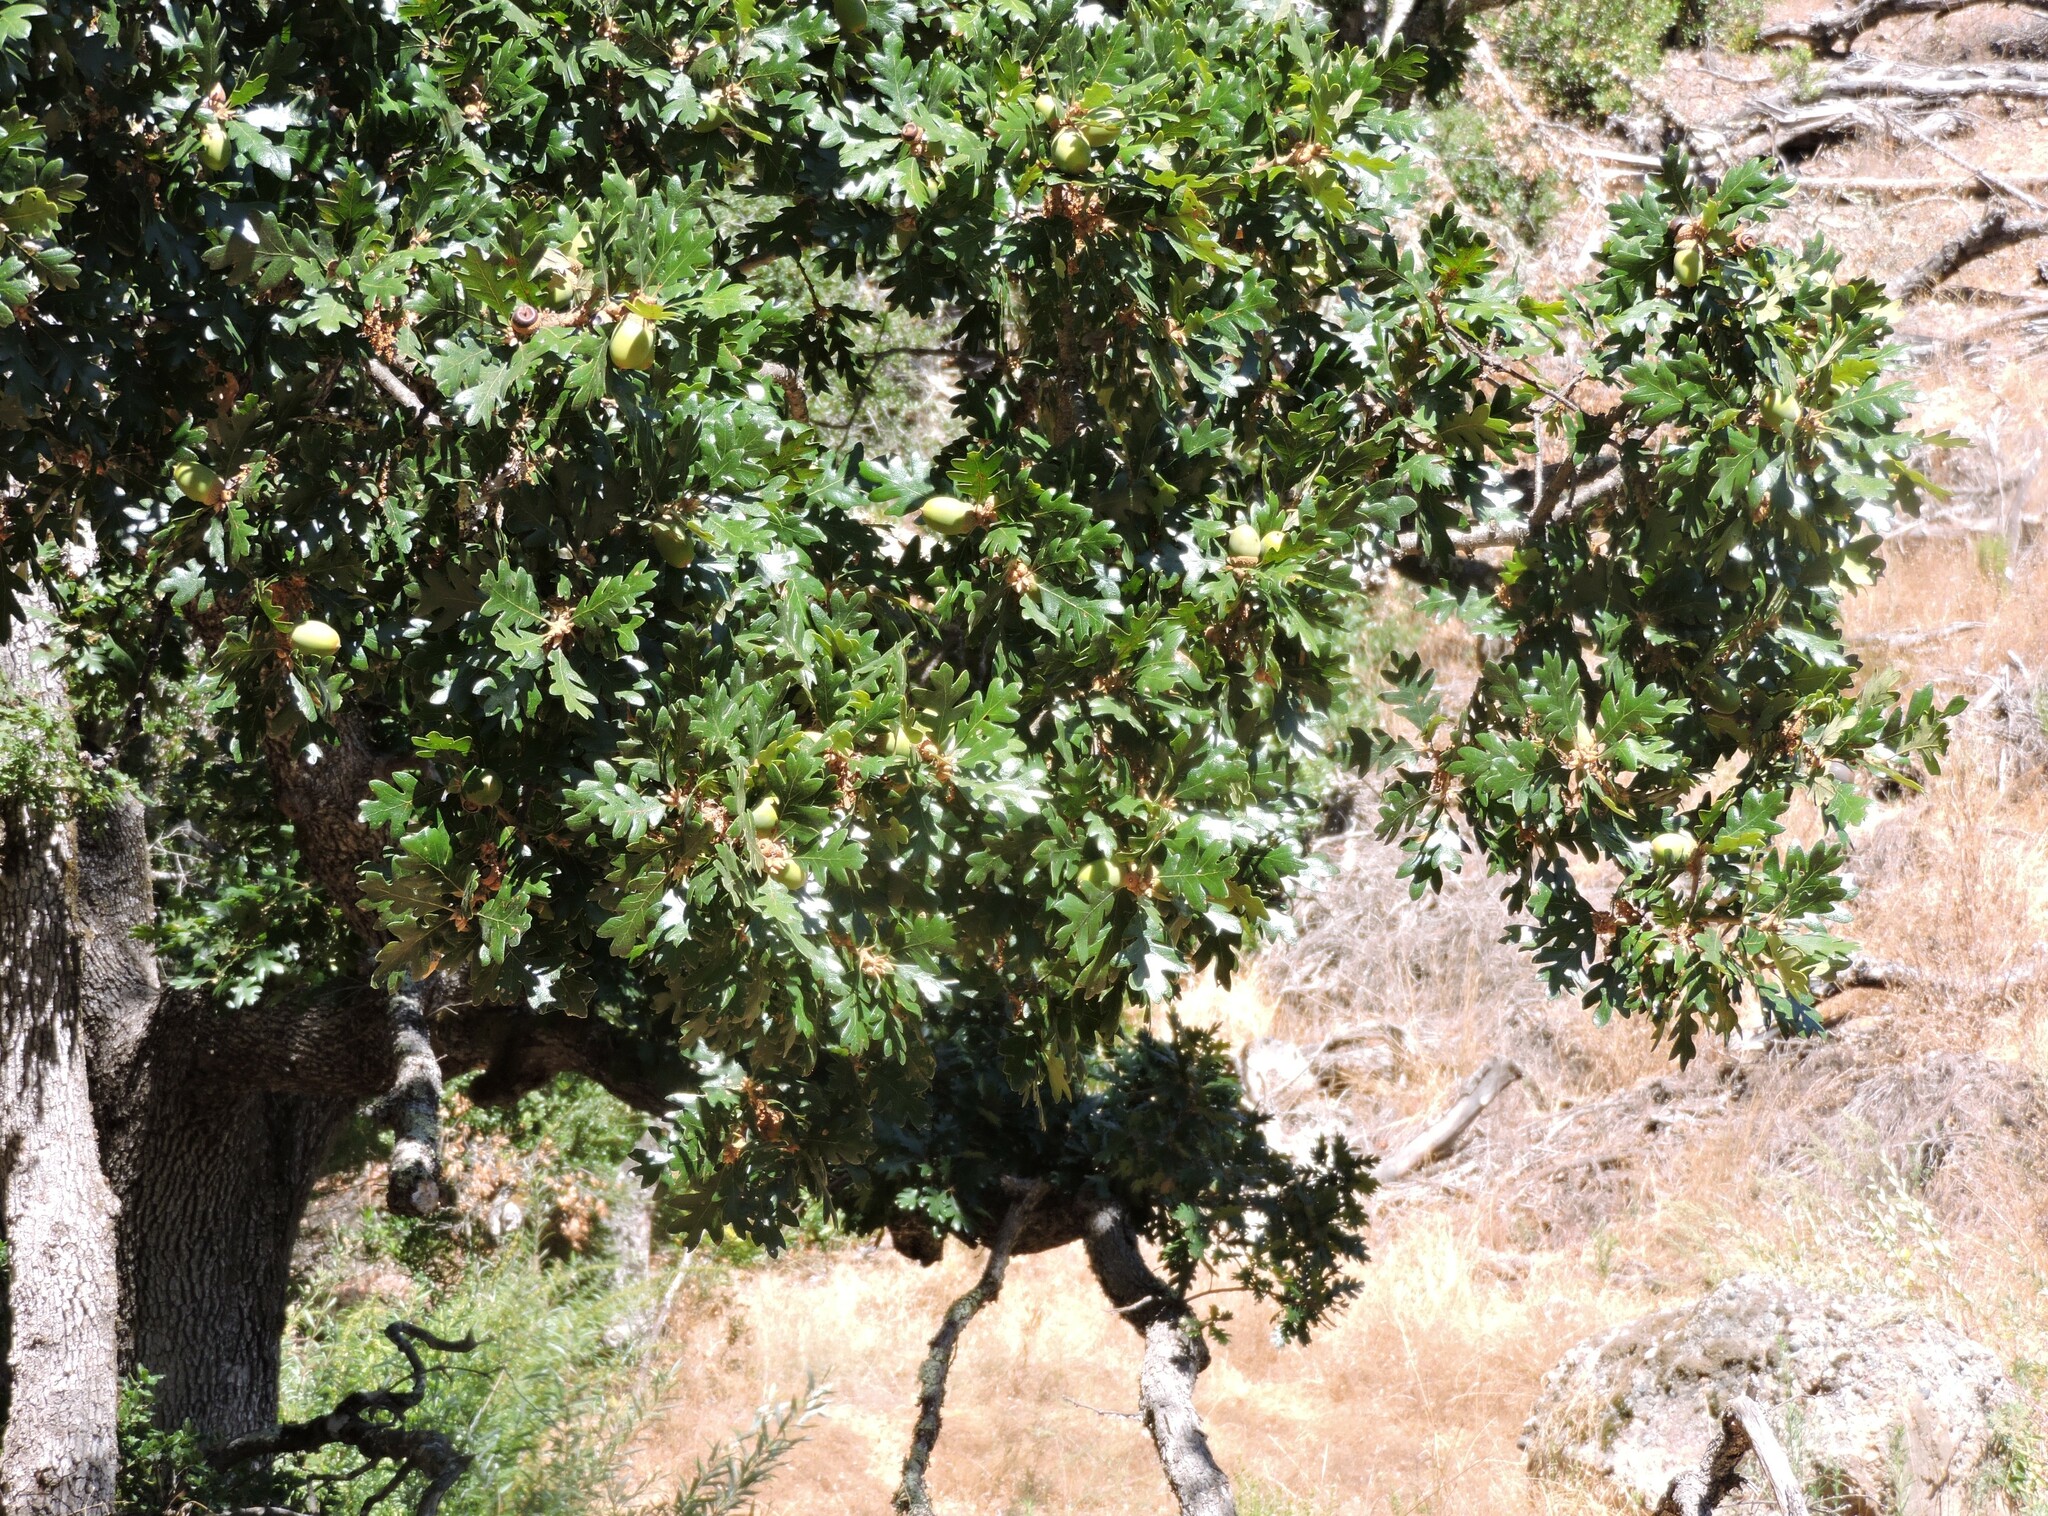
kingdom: Plantae
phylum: Tracheophyta
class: Magnoliopsida
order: Fagales
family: Fagaceae
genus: Quercus
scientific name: Quercus garryana
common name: Garry oak
